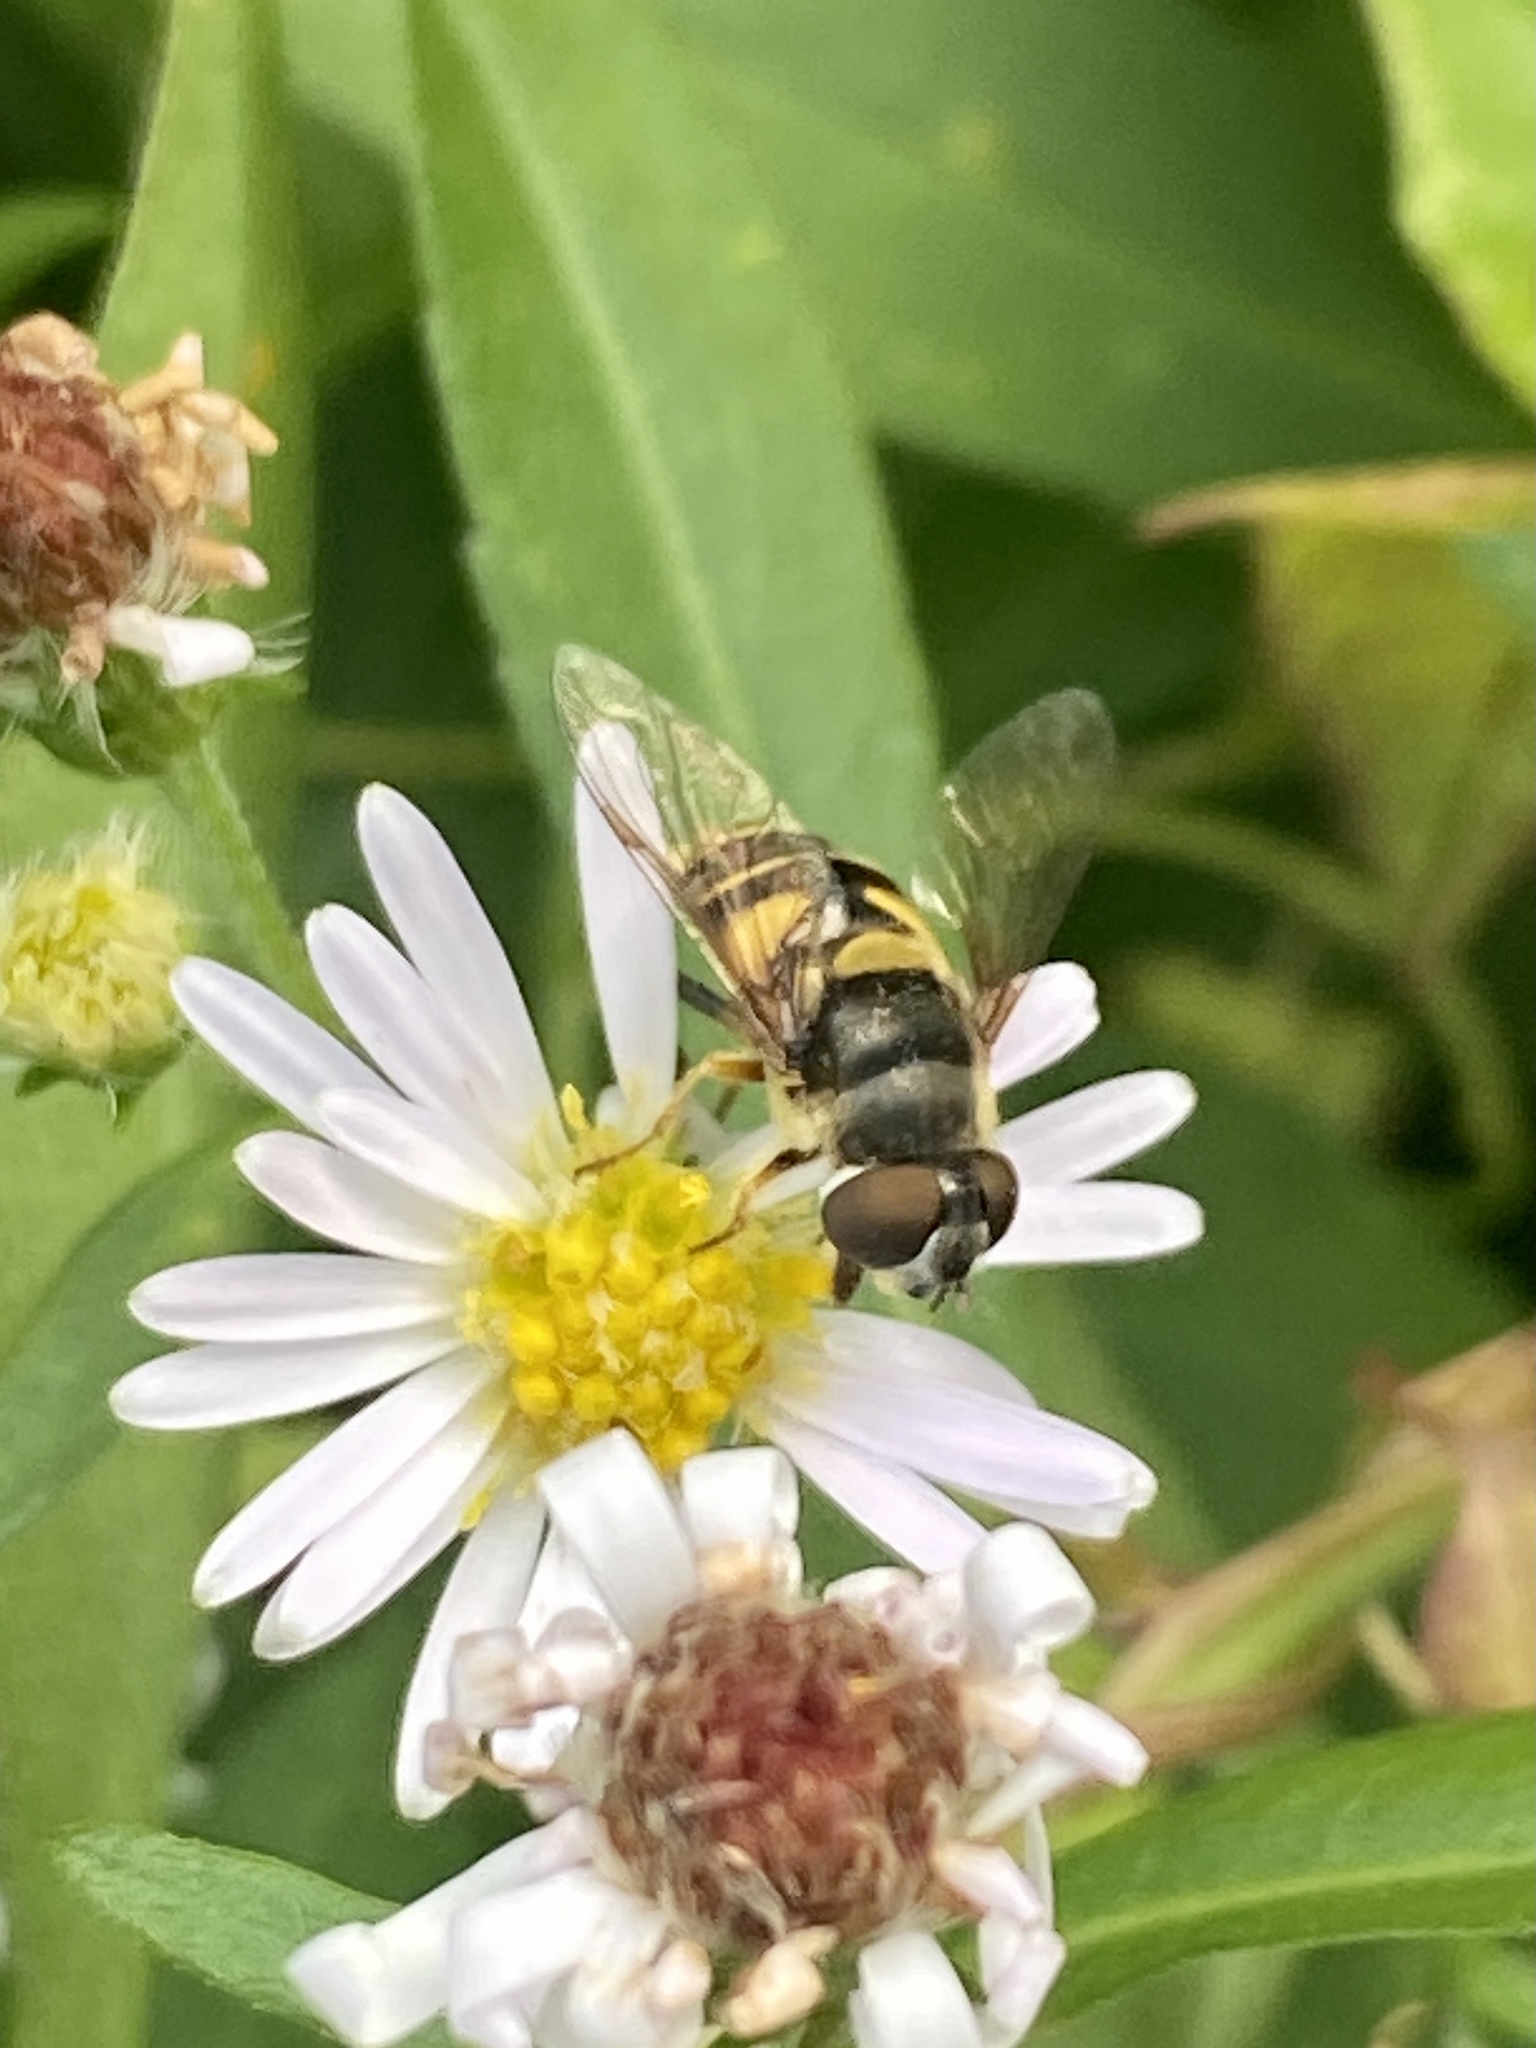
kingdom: Animalia
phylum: Arthropoda
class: Insecta
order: Diptera
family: Syrphidae
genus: Eristalis
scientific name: Eristalis transversa
